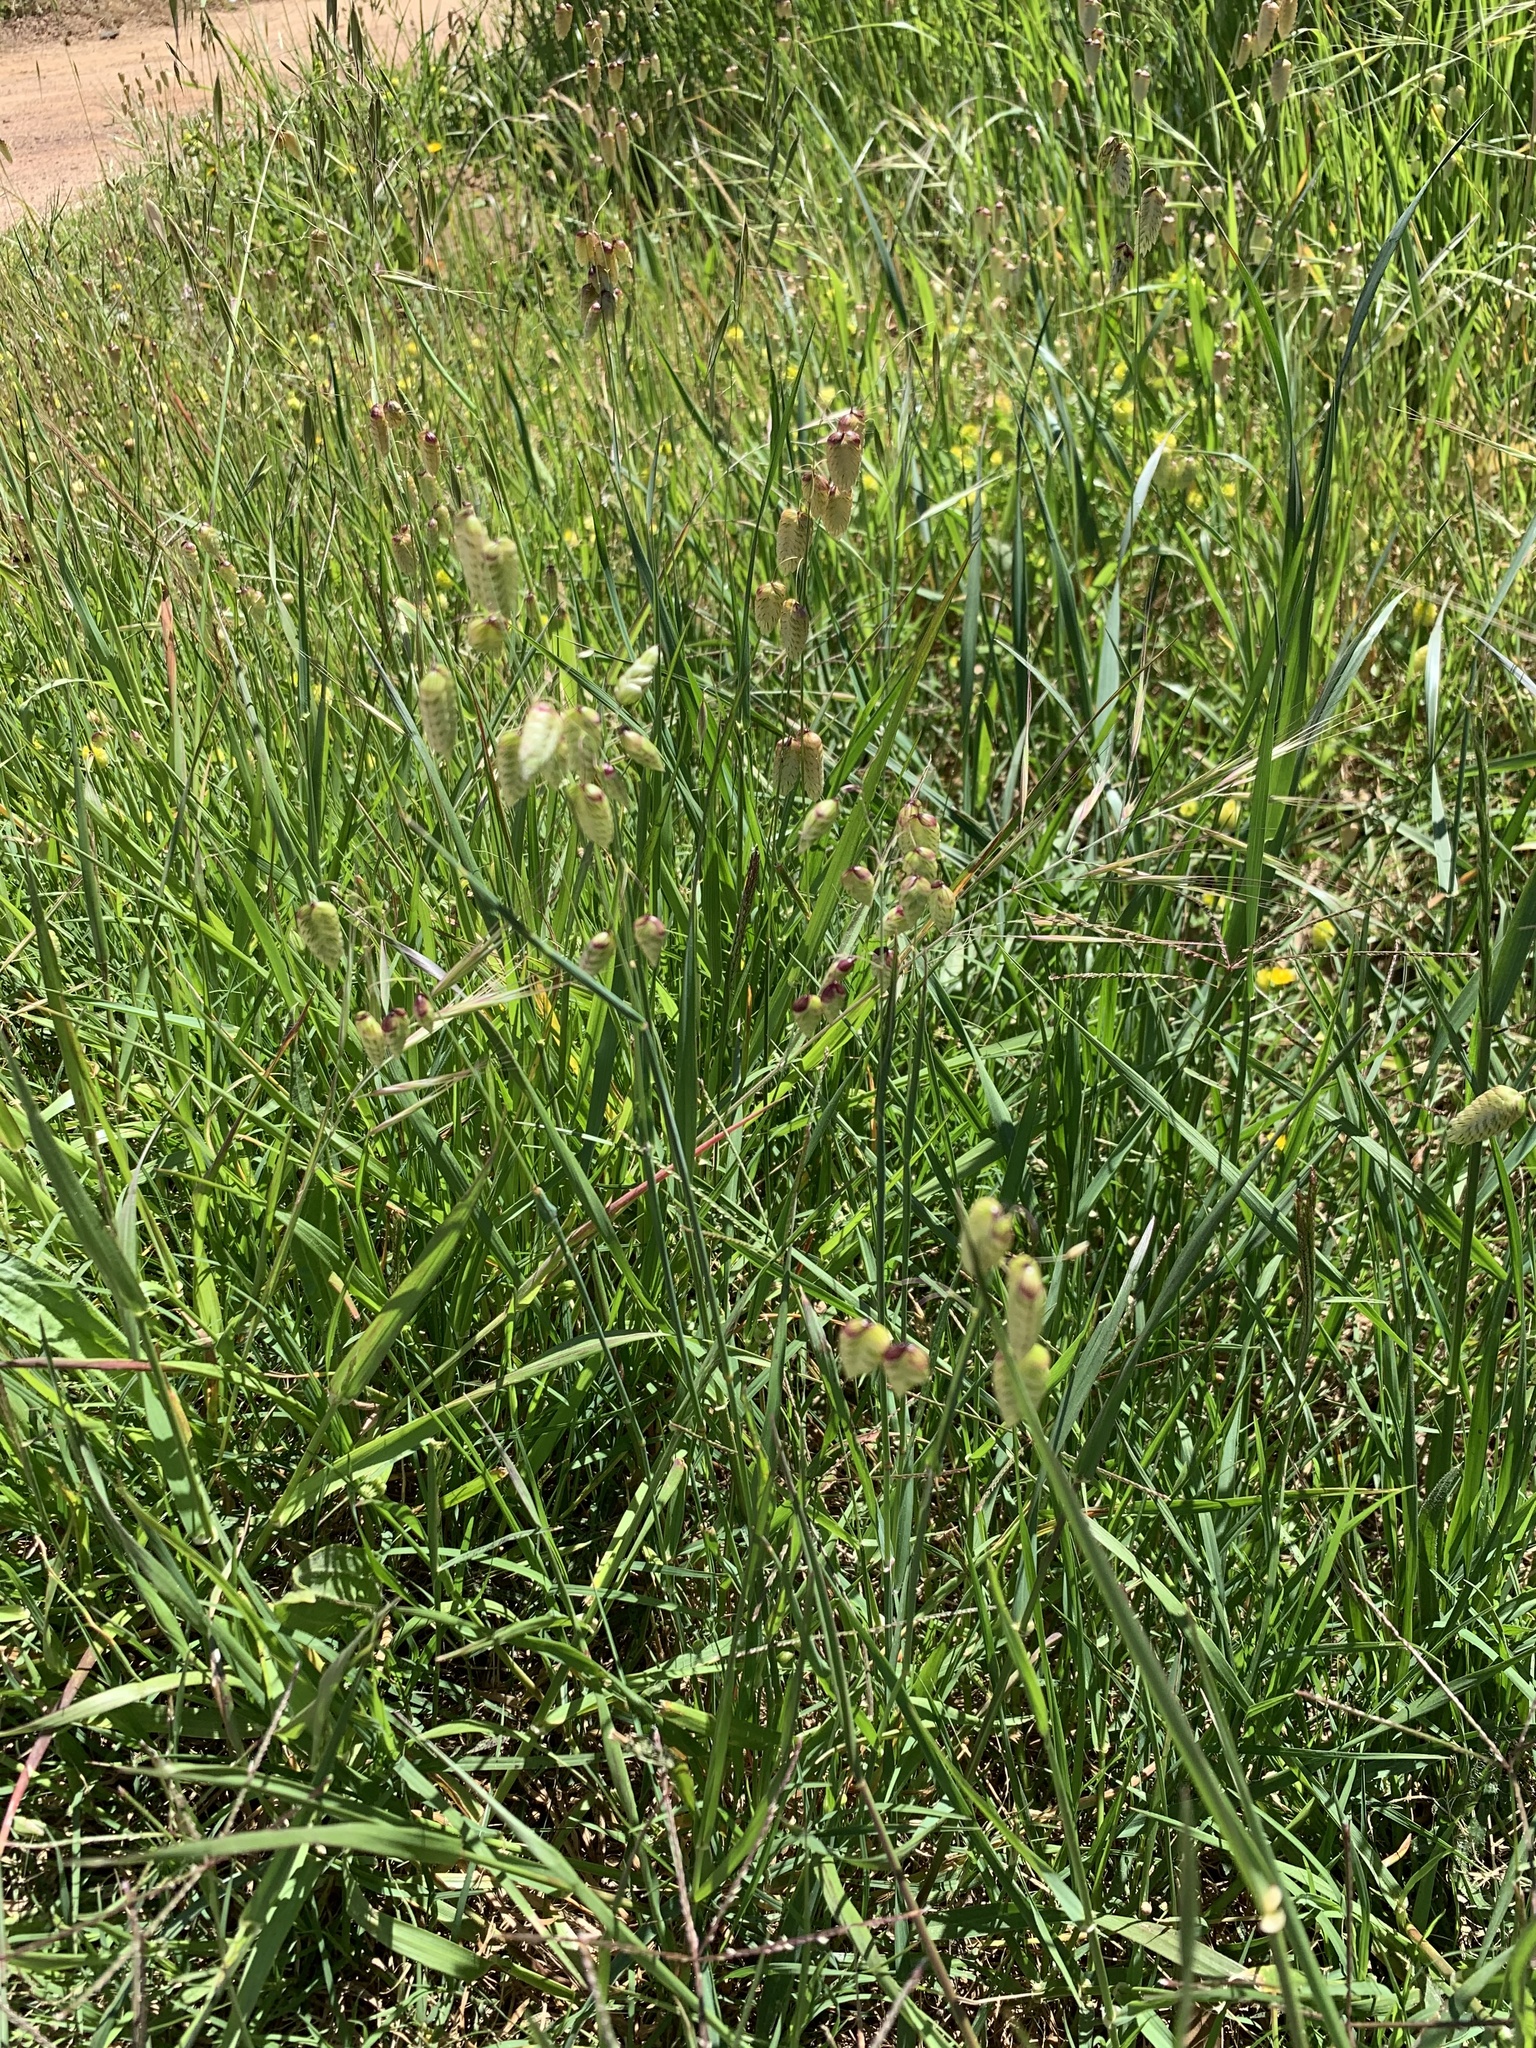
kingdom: Plantae
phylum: Tracheophyta
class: Magnoliopsida
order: Lamiales
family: Plantaginaceae
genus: Plantago
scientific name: Plantago lanceolata
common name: Ribwort plantain
